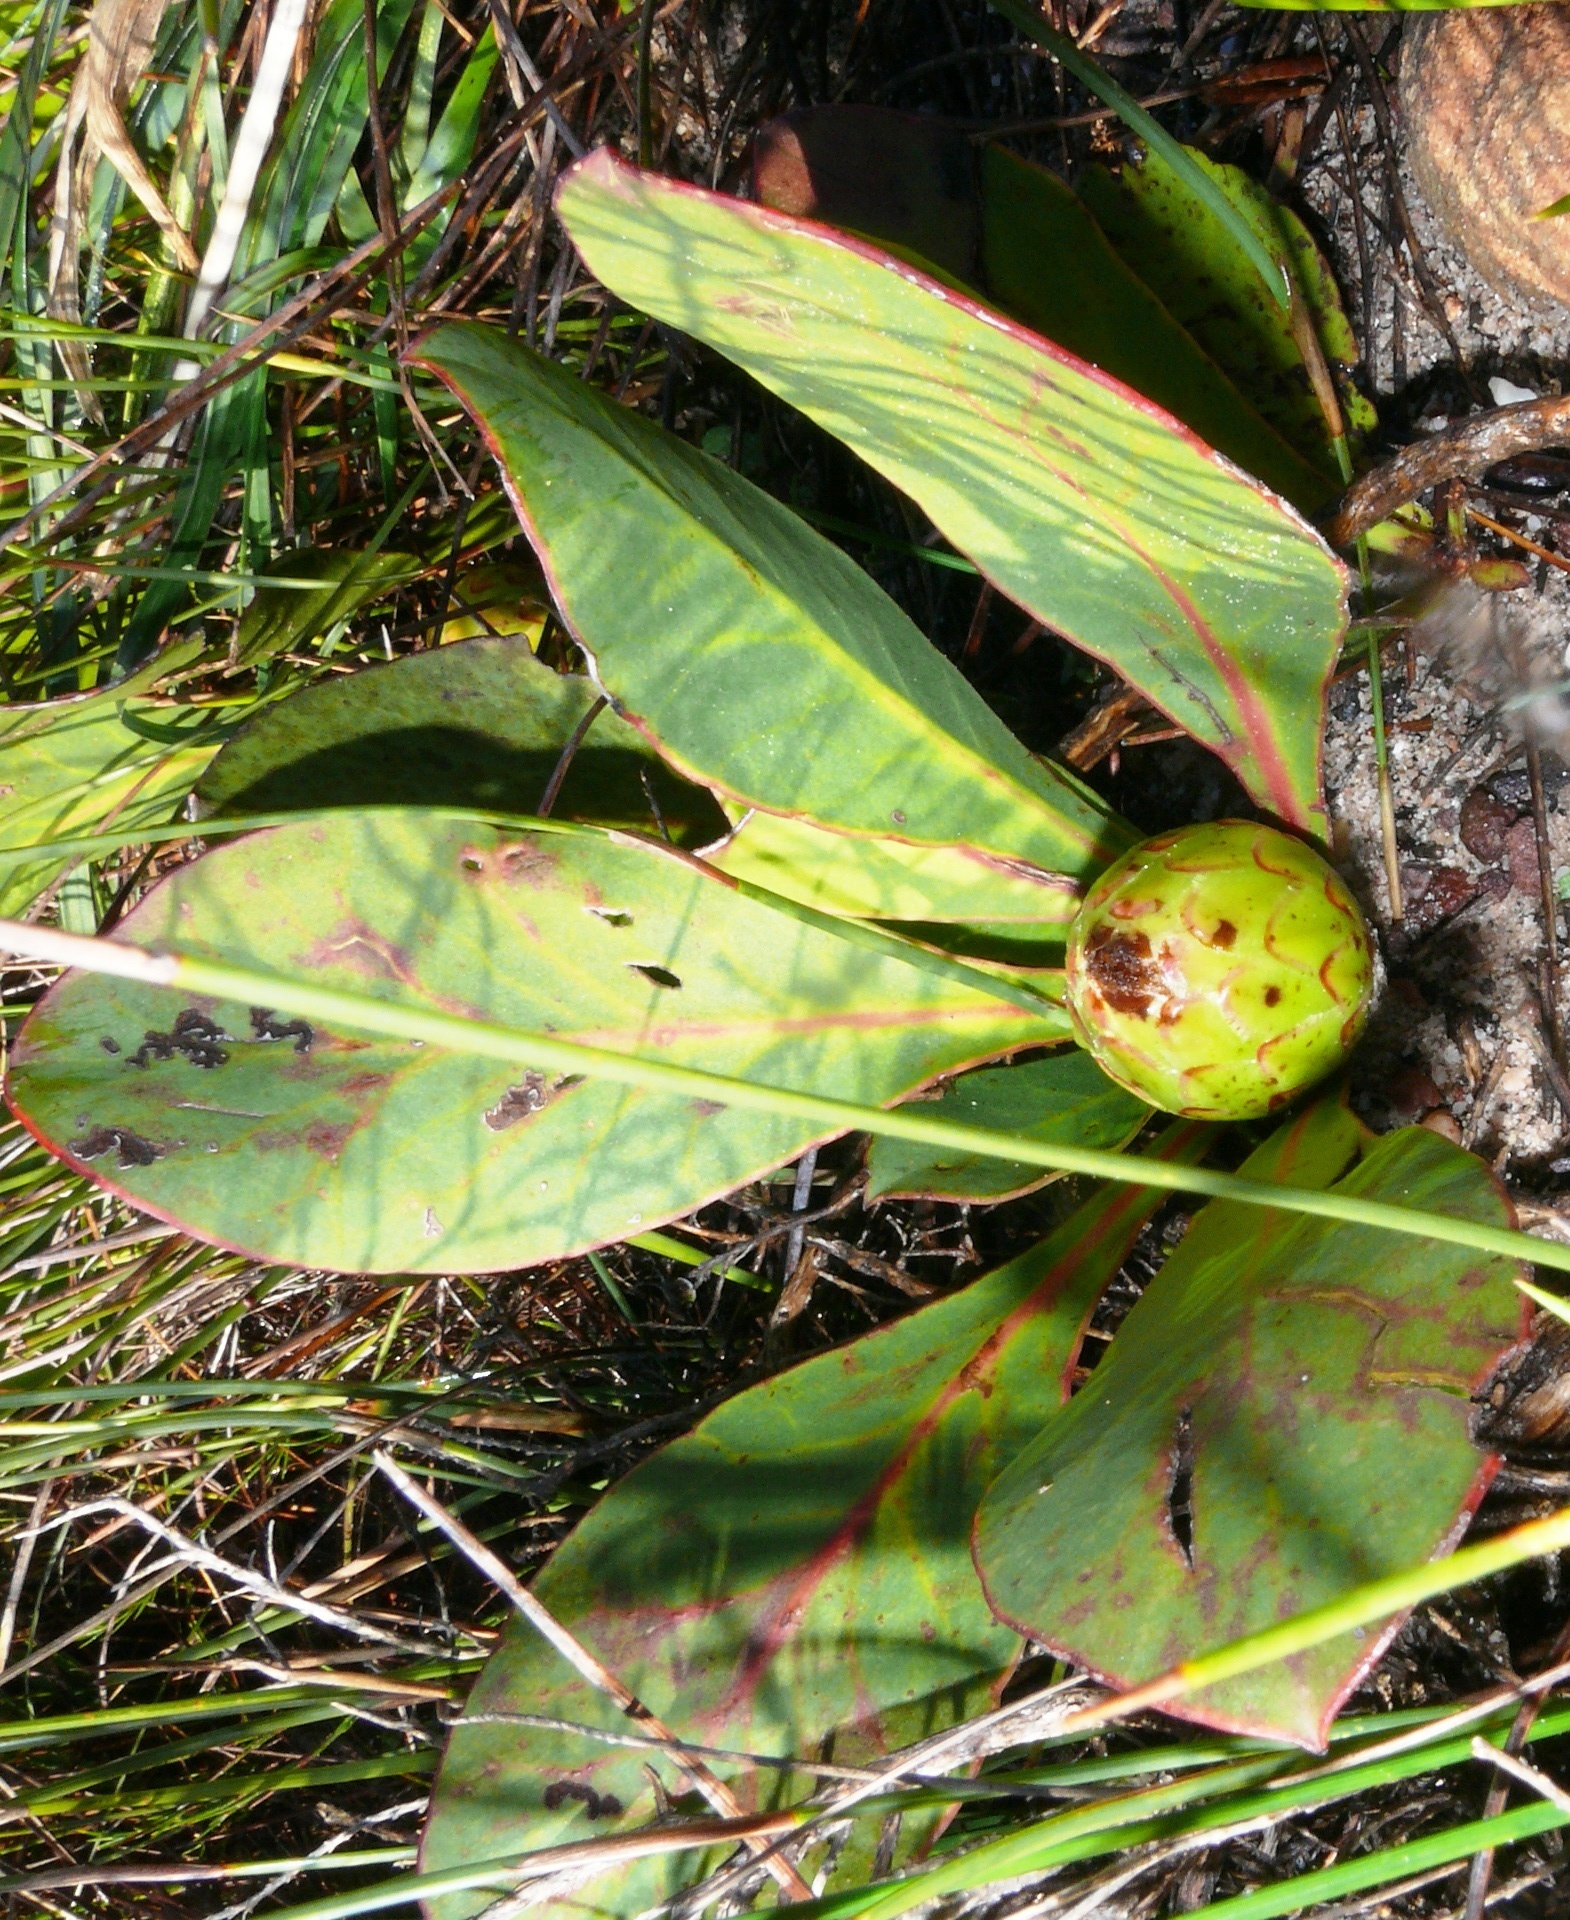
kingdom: Plantae
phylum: Tracheophyta
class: Magnoliopsida
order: Proteales
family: Proteaceae
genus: Protea
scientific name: Protea acaulos
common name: Common ground sugarbush
